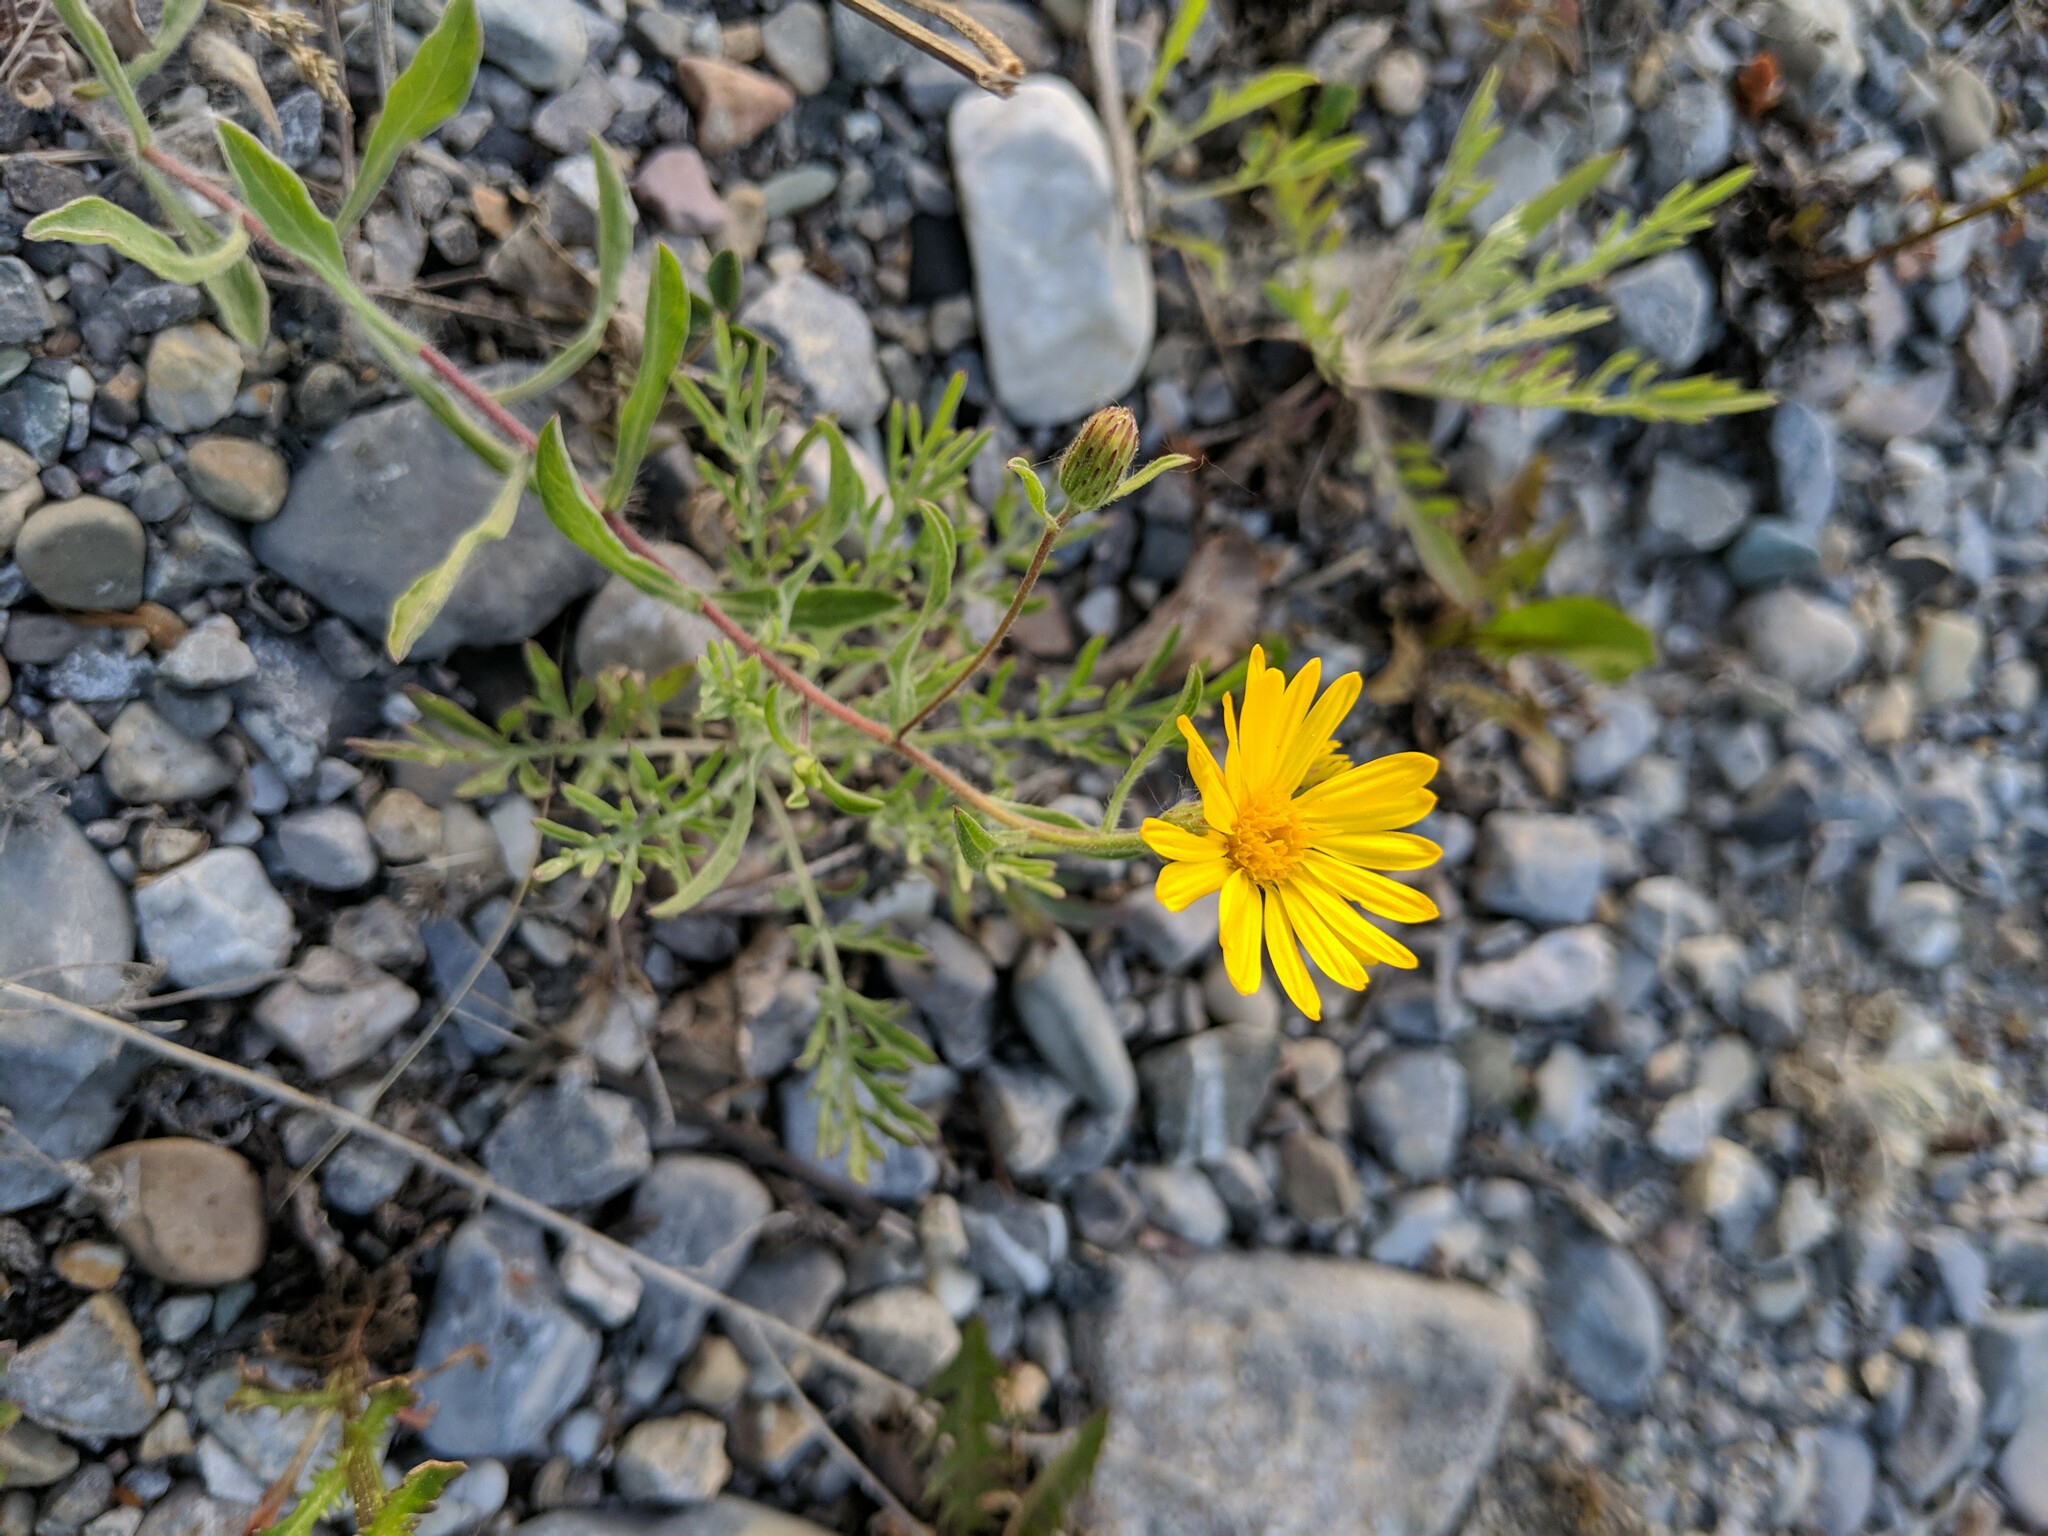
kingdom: Plantae
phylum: Tracheophyta
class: Magnoliopsida
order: Asterales
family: Asteraceae
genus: Heterotheca
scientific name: Heterotheca villosa
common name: Hairy false goldenaster
